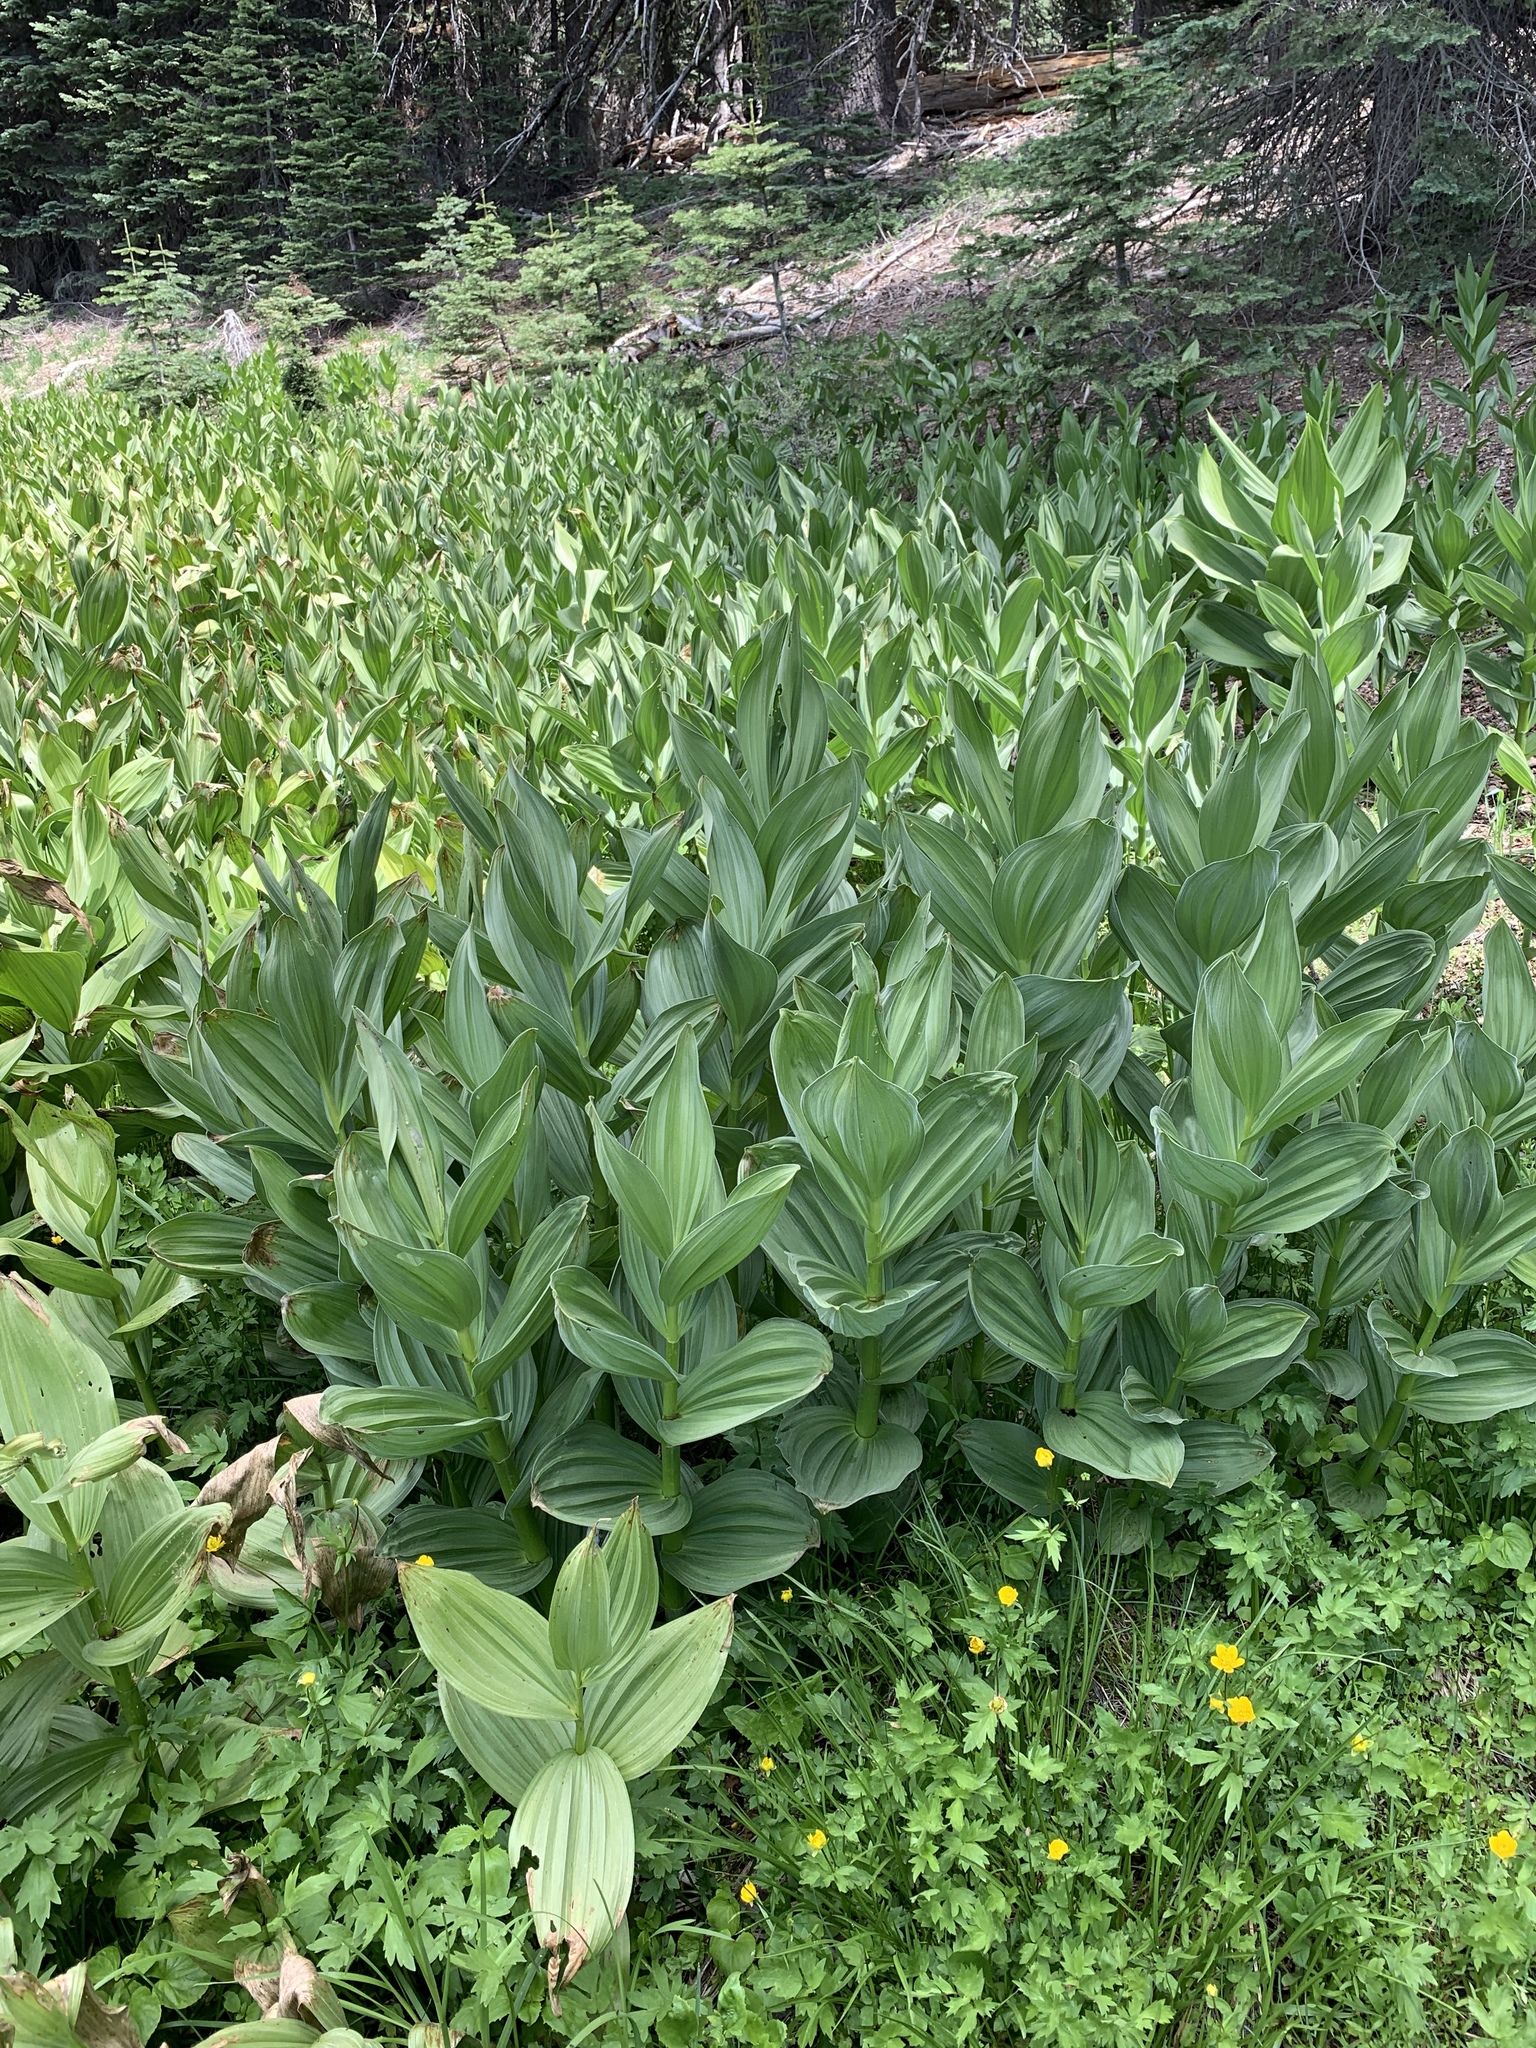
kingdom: Plantae
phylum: Tracheophyta
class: Liliopsida
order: Liliales
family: Melanthiaceae
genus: Veratrum
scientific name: Veratrum californicum
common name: California veratrum
